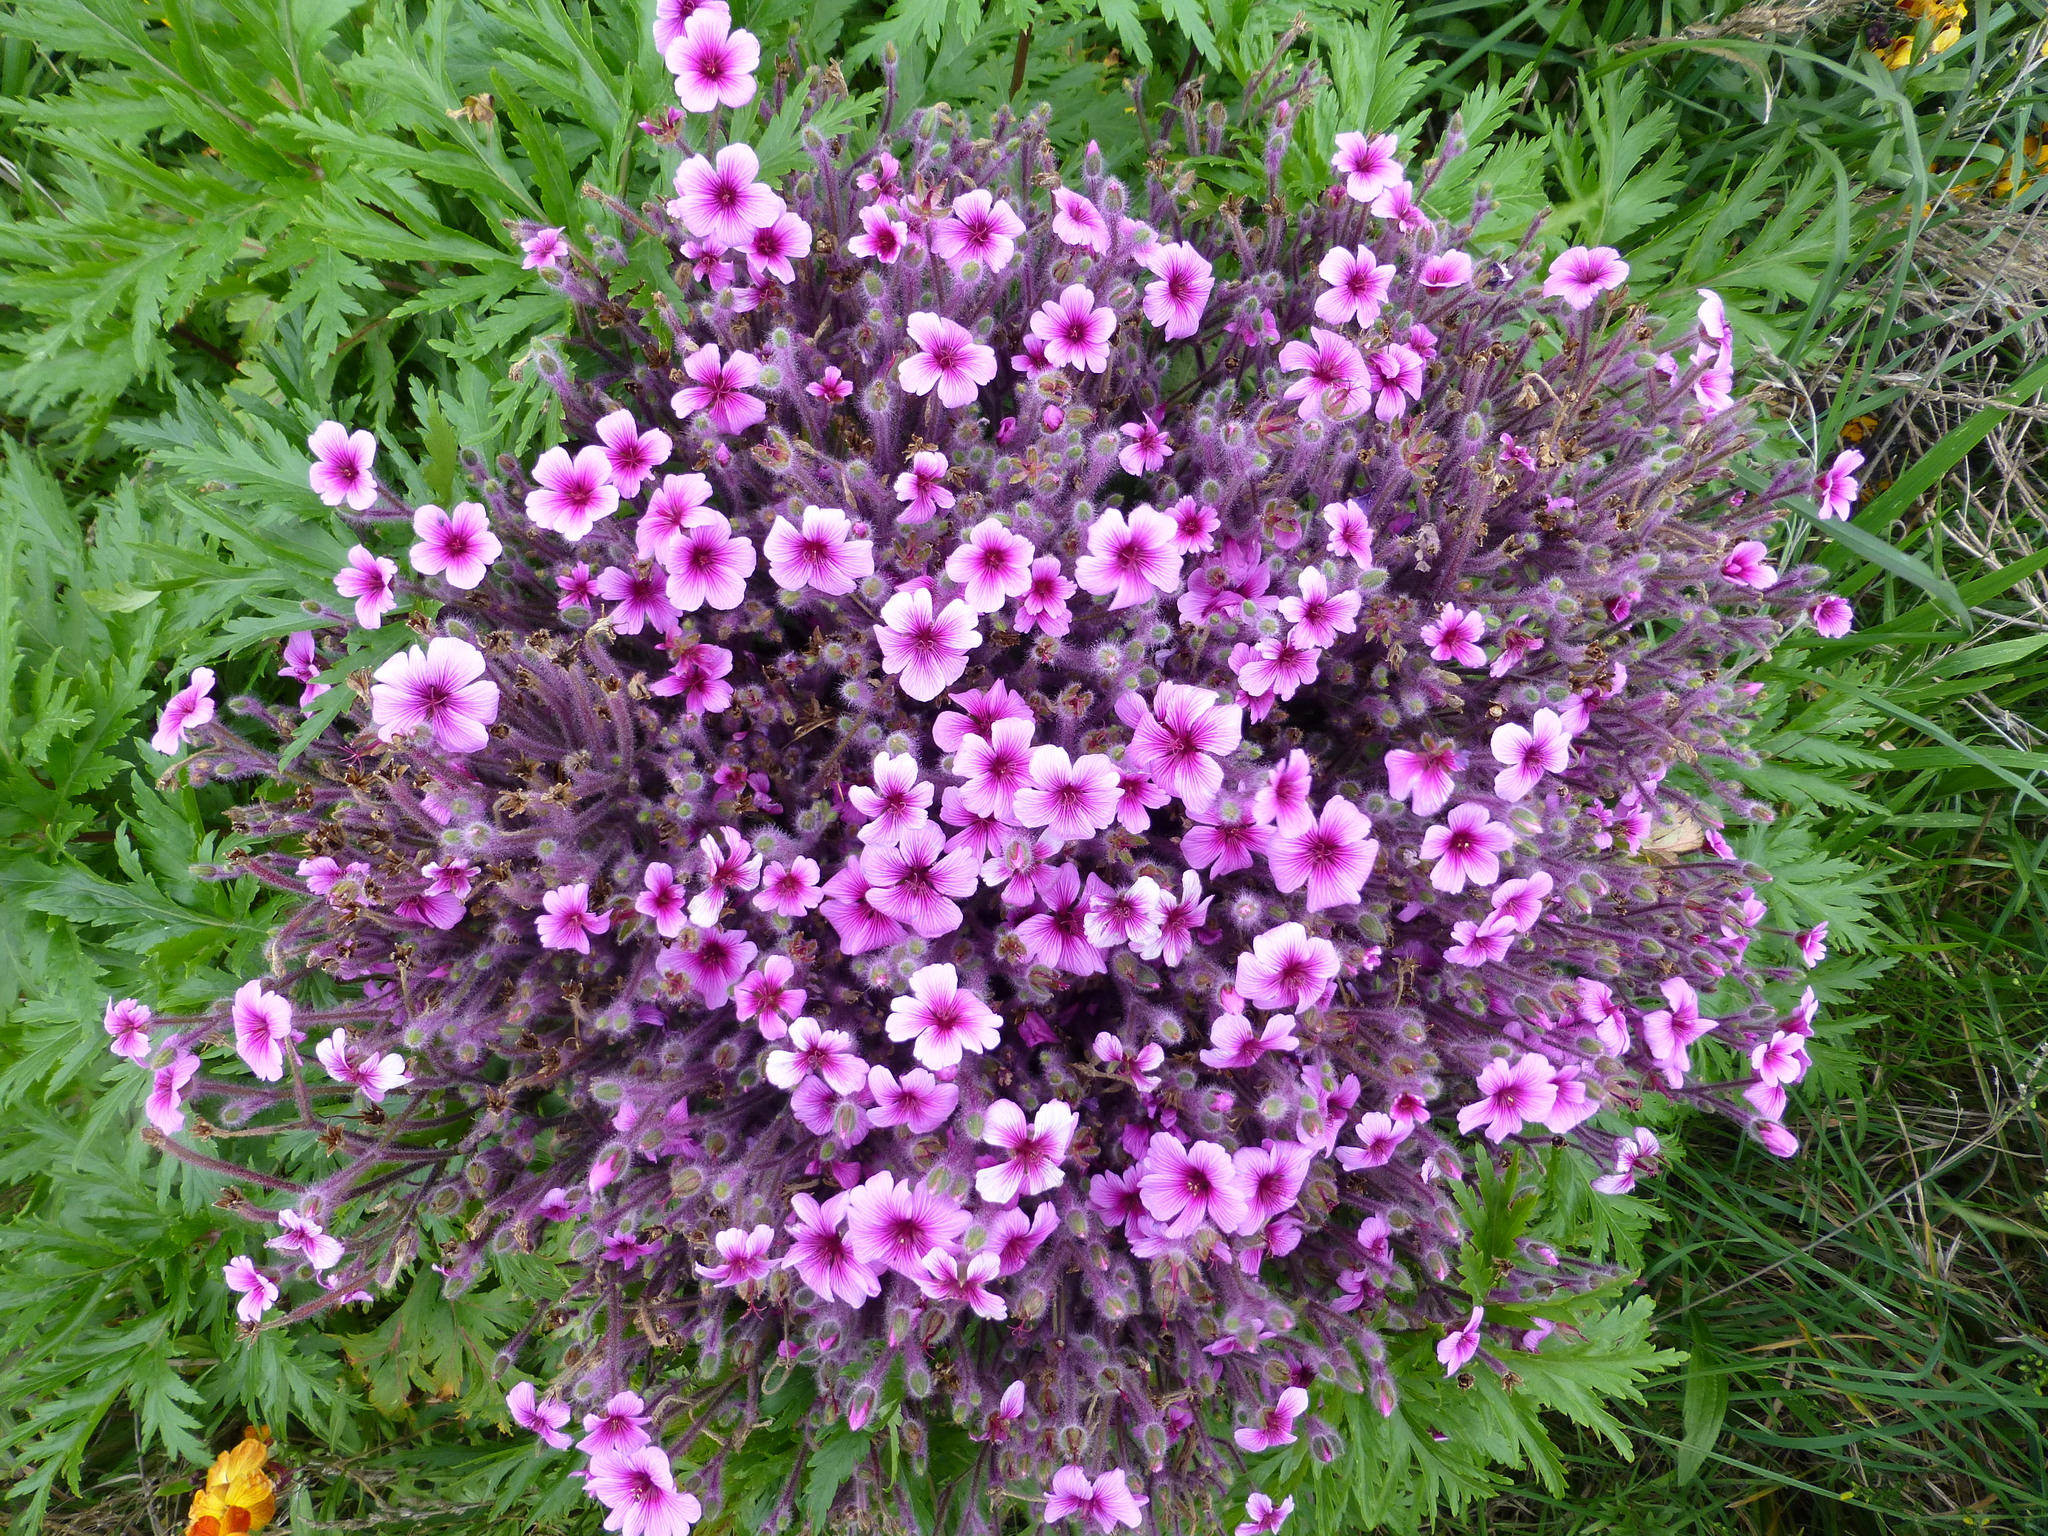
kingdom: Plantae
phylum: Tracheophyta
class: Magnoliopsida
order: Geraniales
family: Geraniaceae
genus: Geranium
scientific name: Geranium maderense
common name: Giant herb-robert
